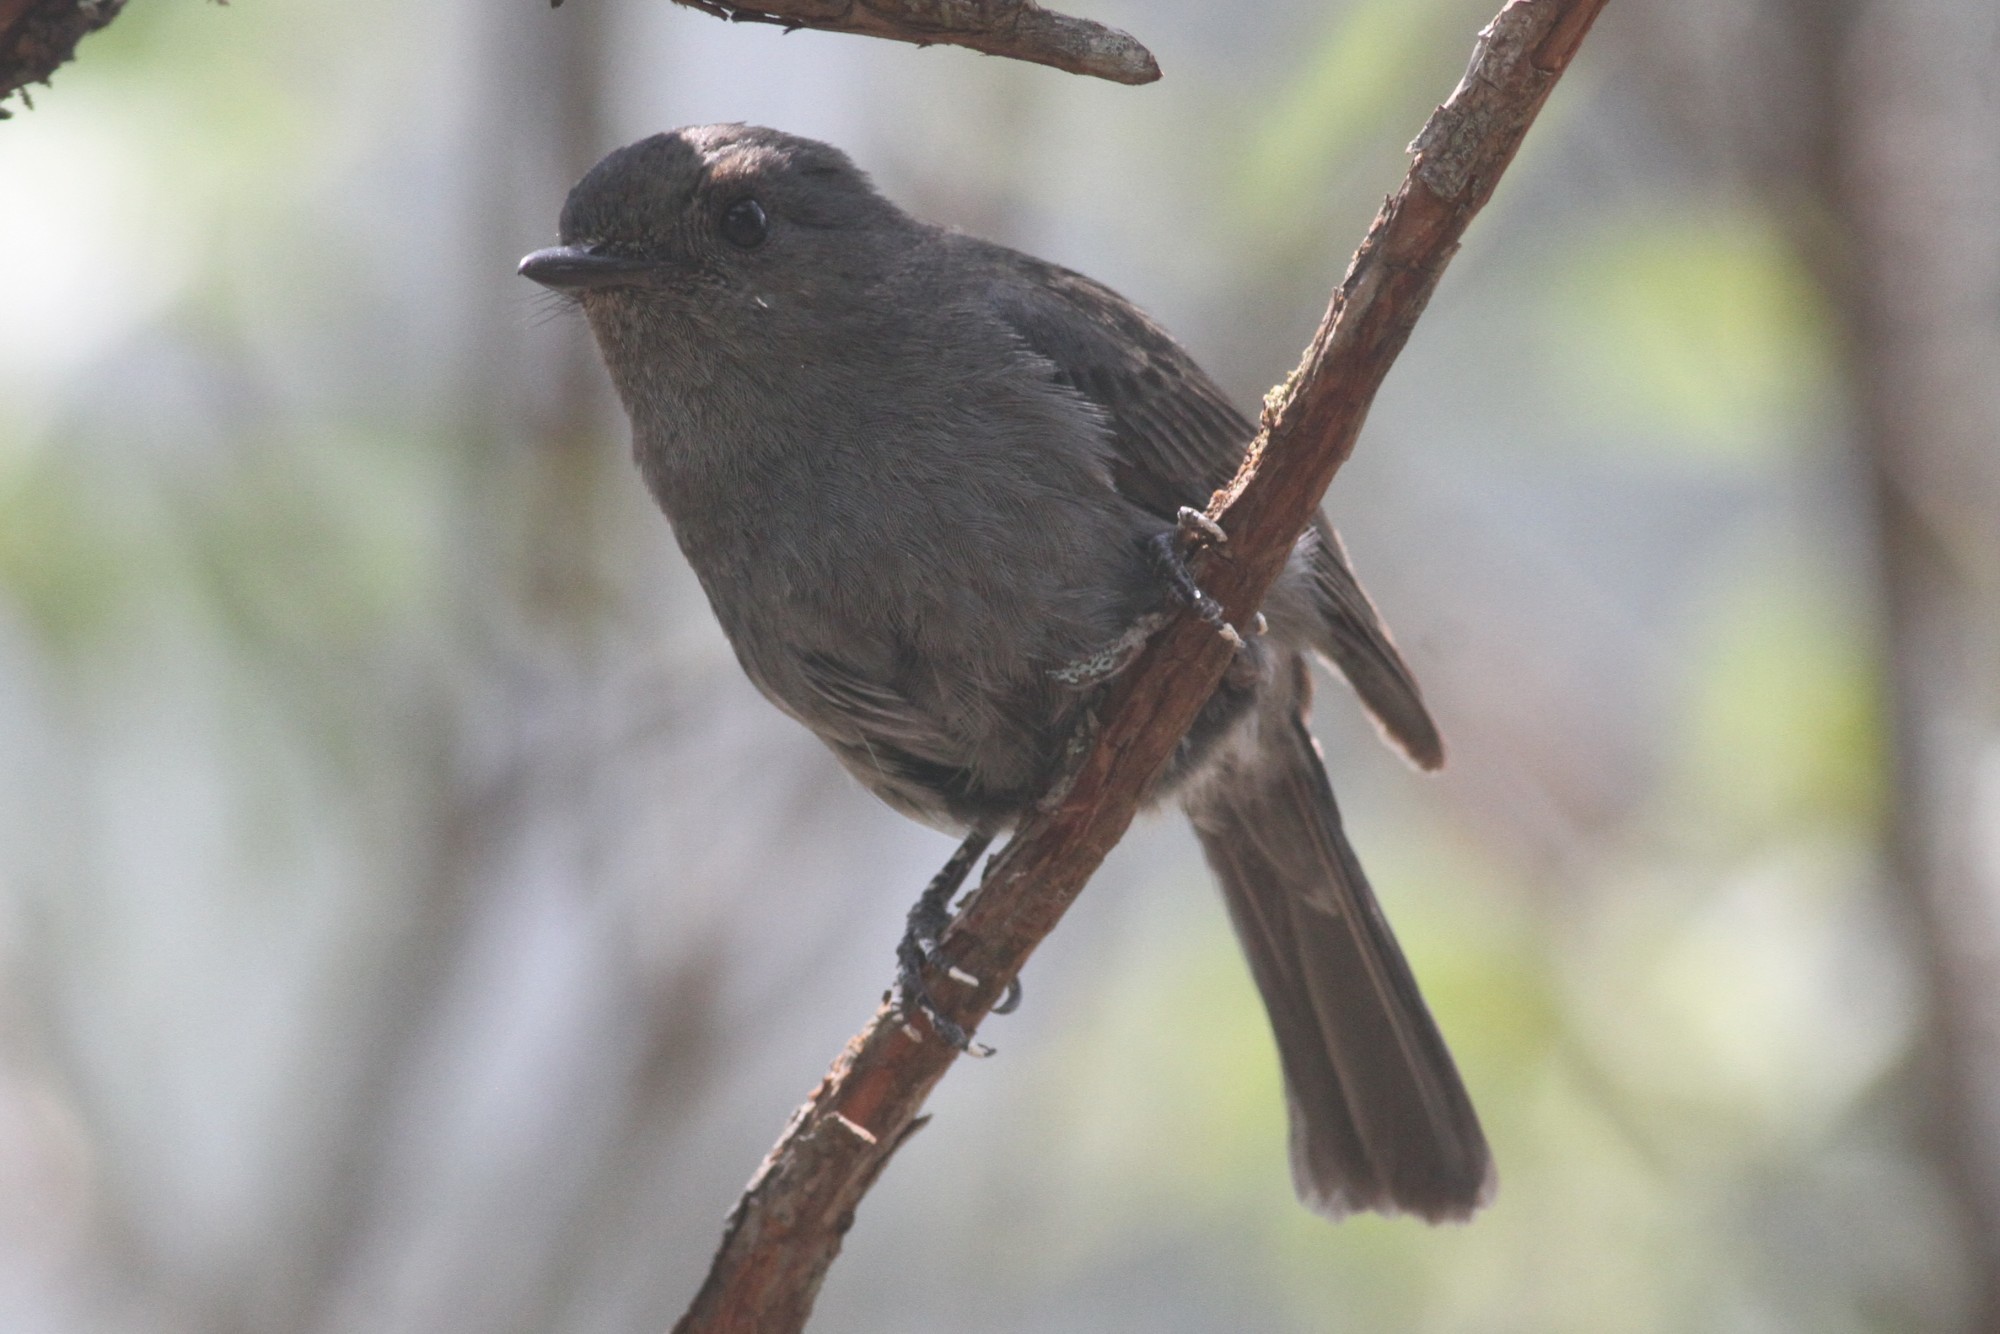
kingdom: Animalia
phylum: Chordata
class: Aves
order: Passeriformes
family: Muscicapidae
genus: Eumyias
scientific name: Eumyias albicaudatus
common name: Nilgiri flycatcher
